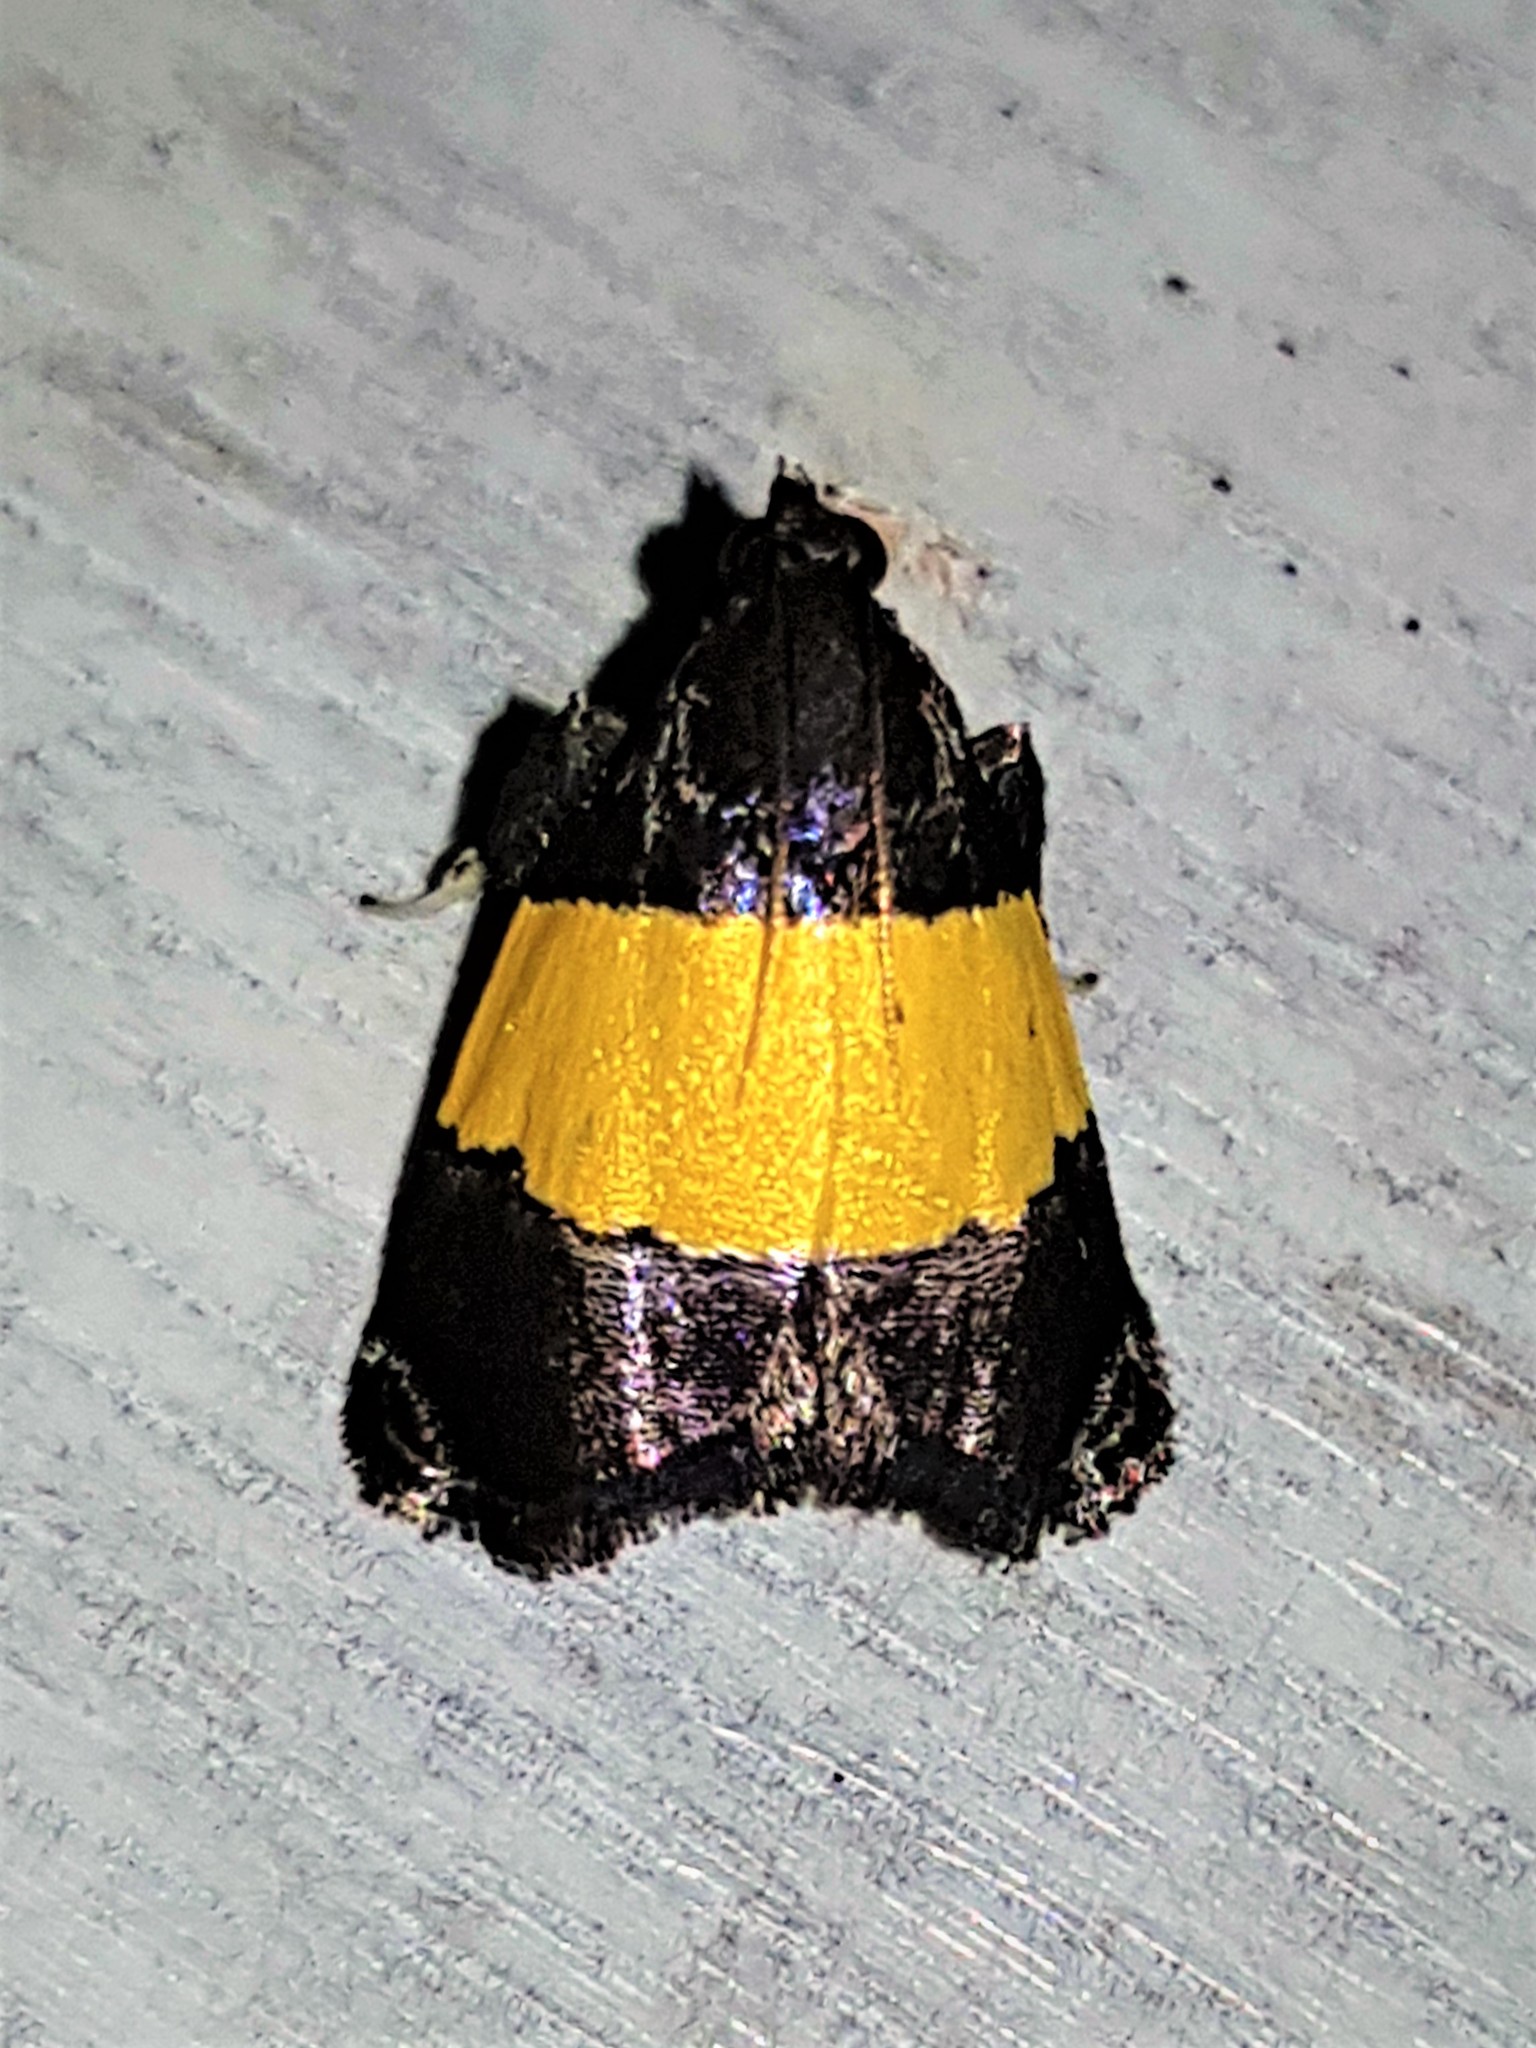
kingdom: Animalia
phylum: Arthropoda
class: Insecta
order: Lepidoptera
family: Pyralidae
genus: Lophopleura
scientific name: Lophopleura eurzonalis
